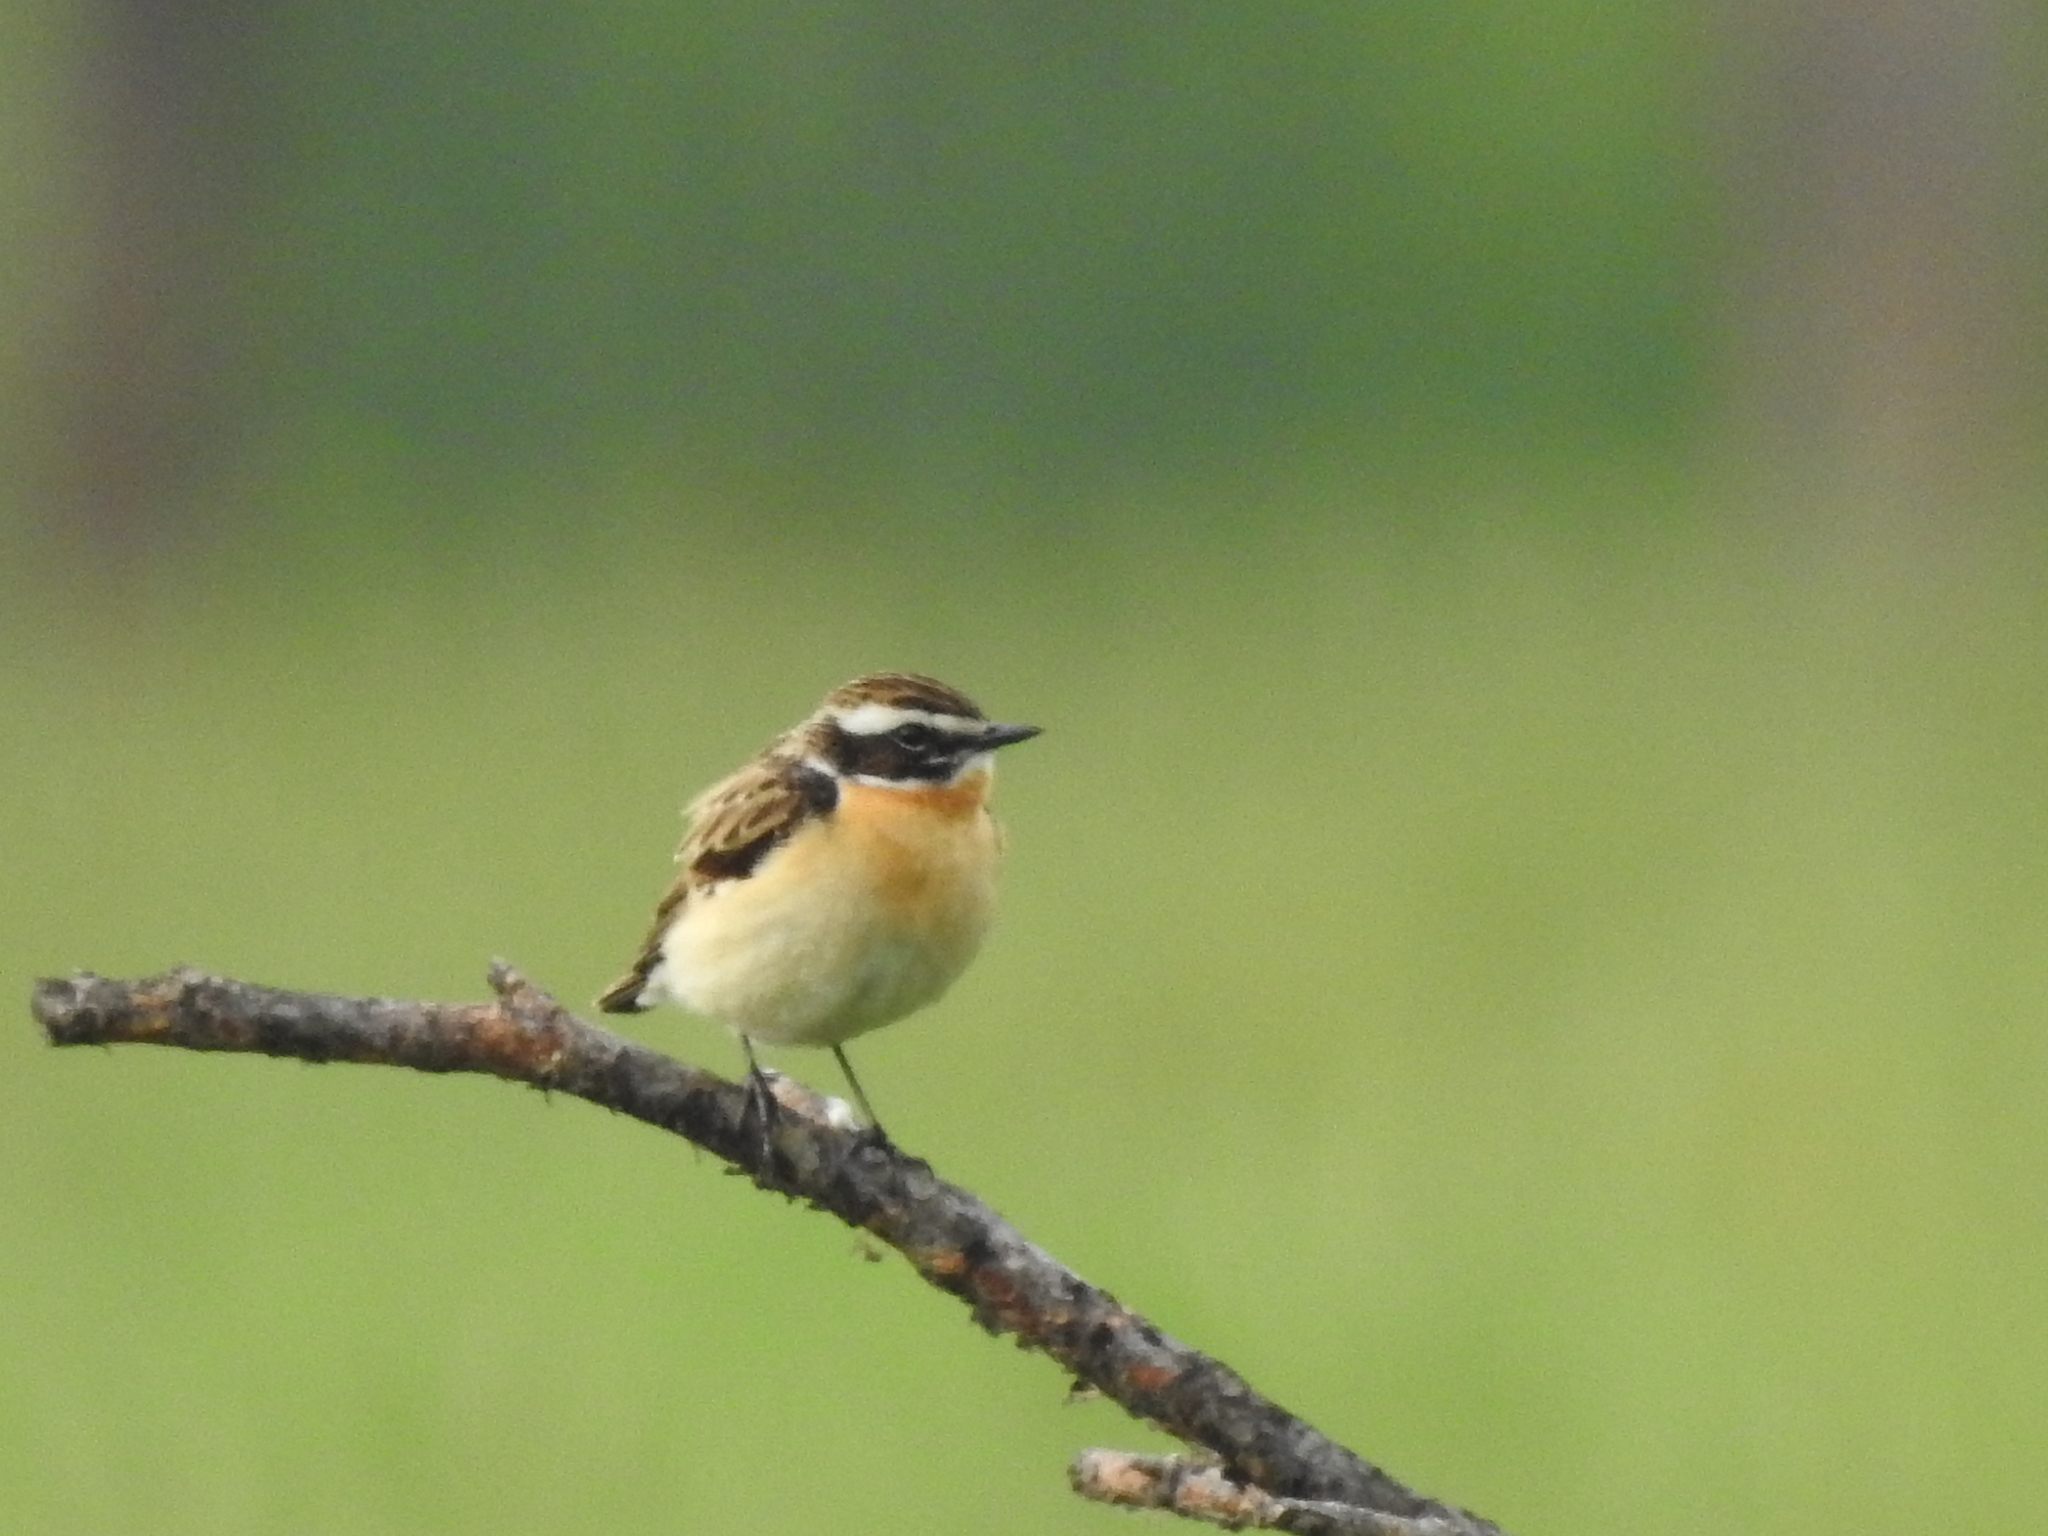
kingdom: Animalia
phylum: Chordata
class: Aves
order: Passeriformes
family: Muscicapidae
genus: Saxicola
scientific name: Saxicola rubetra
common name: Whinchat
